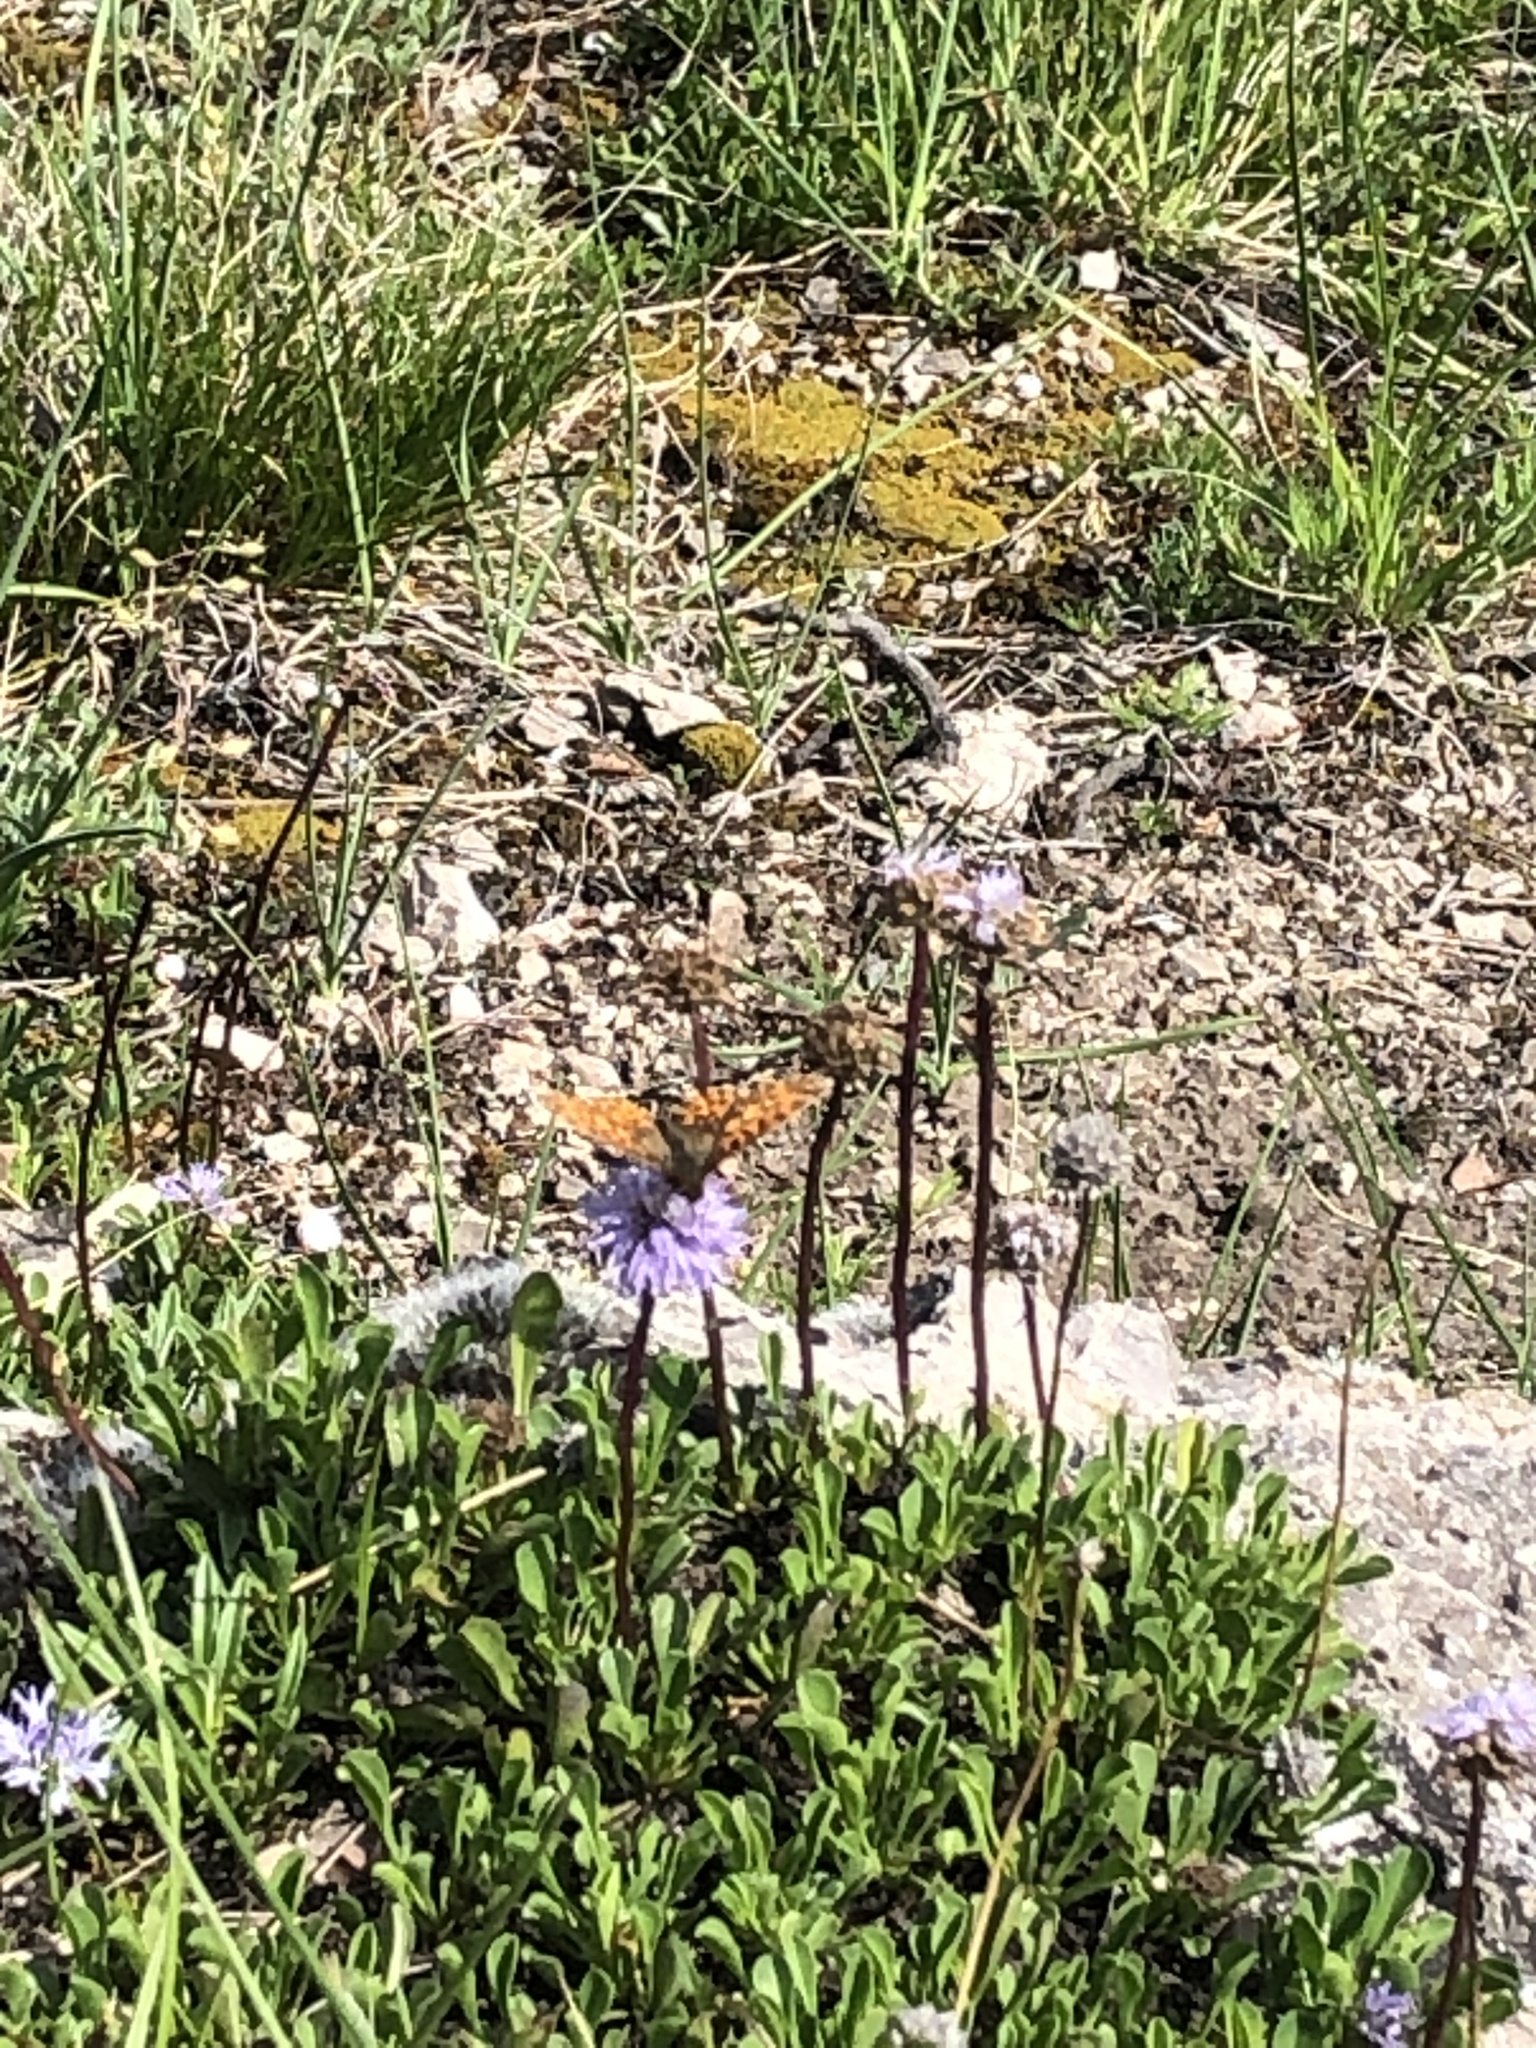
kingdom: Animalia
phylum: Arthropoda
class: Insecta
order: Lepidoptera
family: Nymphalidae
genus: Boloria
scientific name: Boloria dia
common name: Weaver's fritillary
